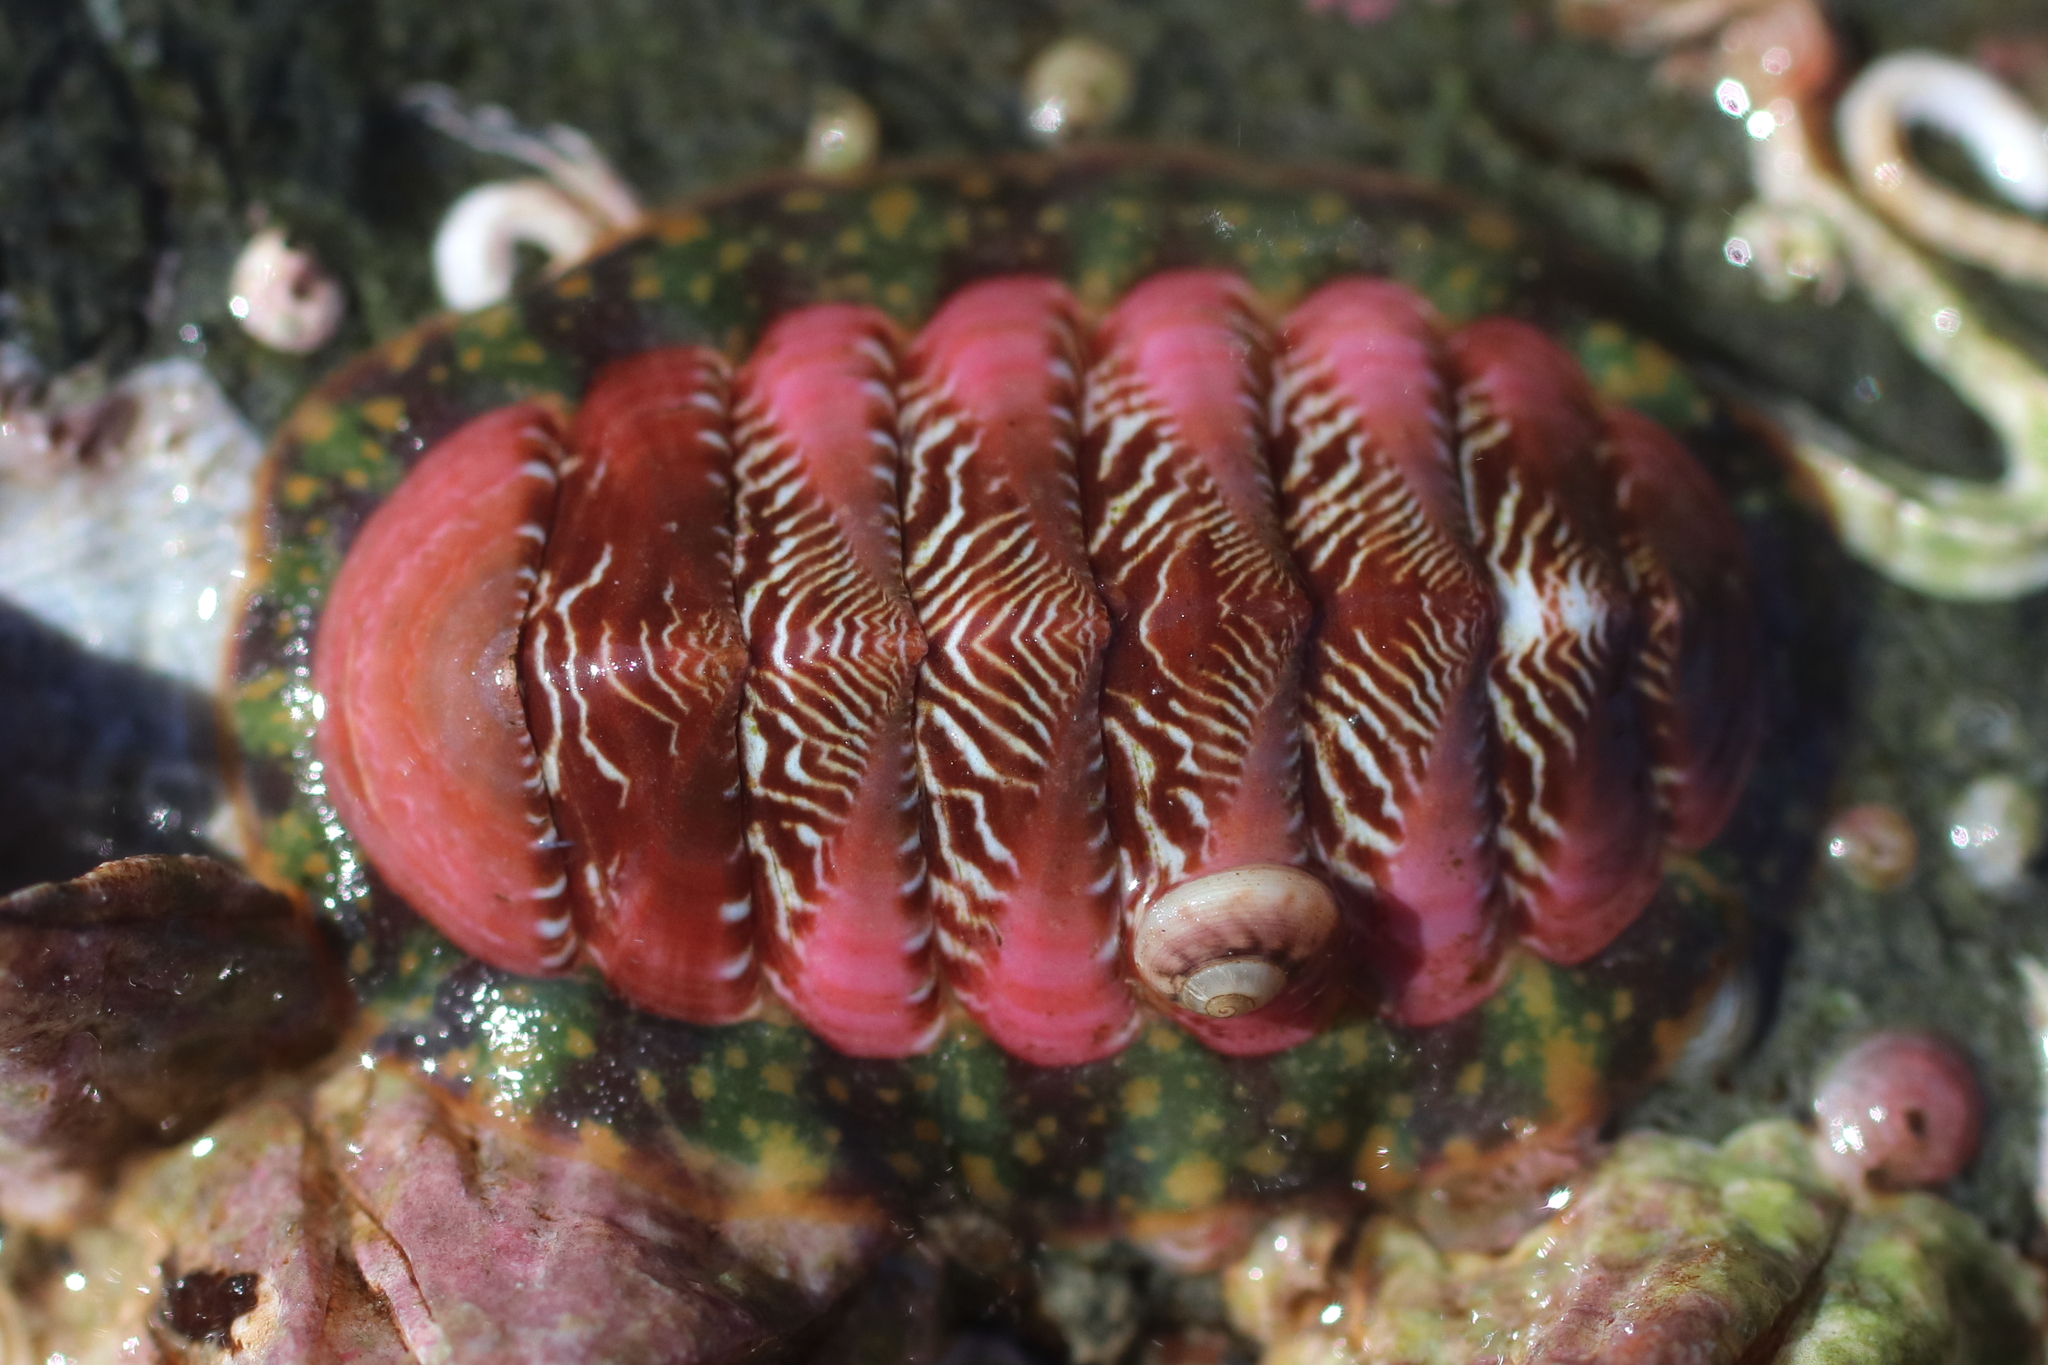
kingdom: Animalia
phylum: Mollusca
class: Polyplacophora
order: Chitonida
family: Tonicellidae
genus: Tonicella
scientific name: Tonicella insignis
